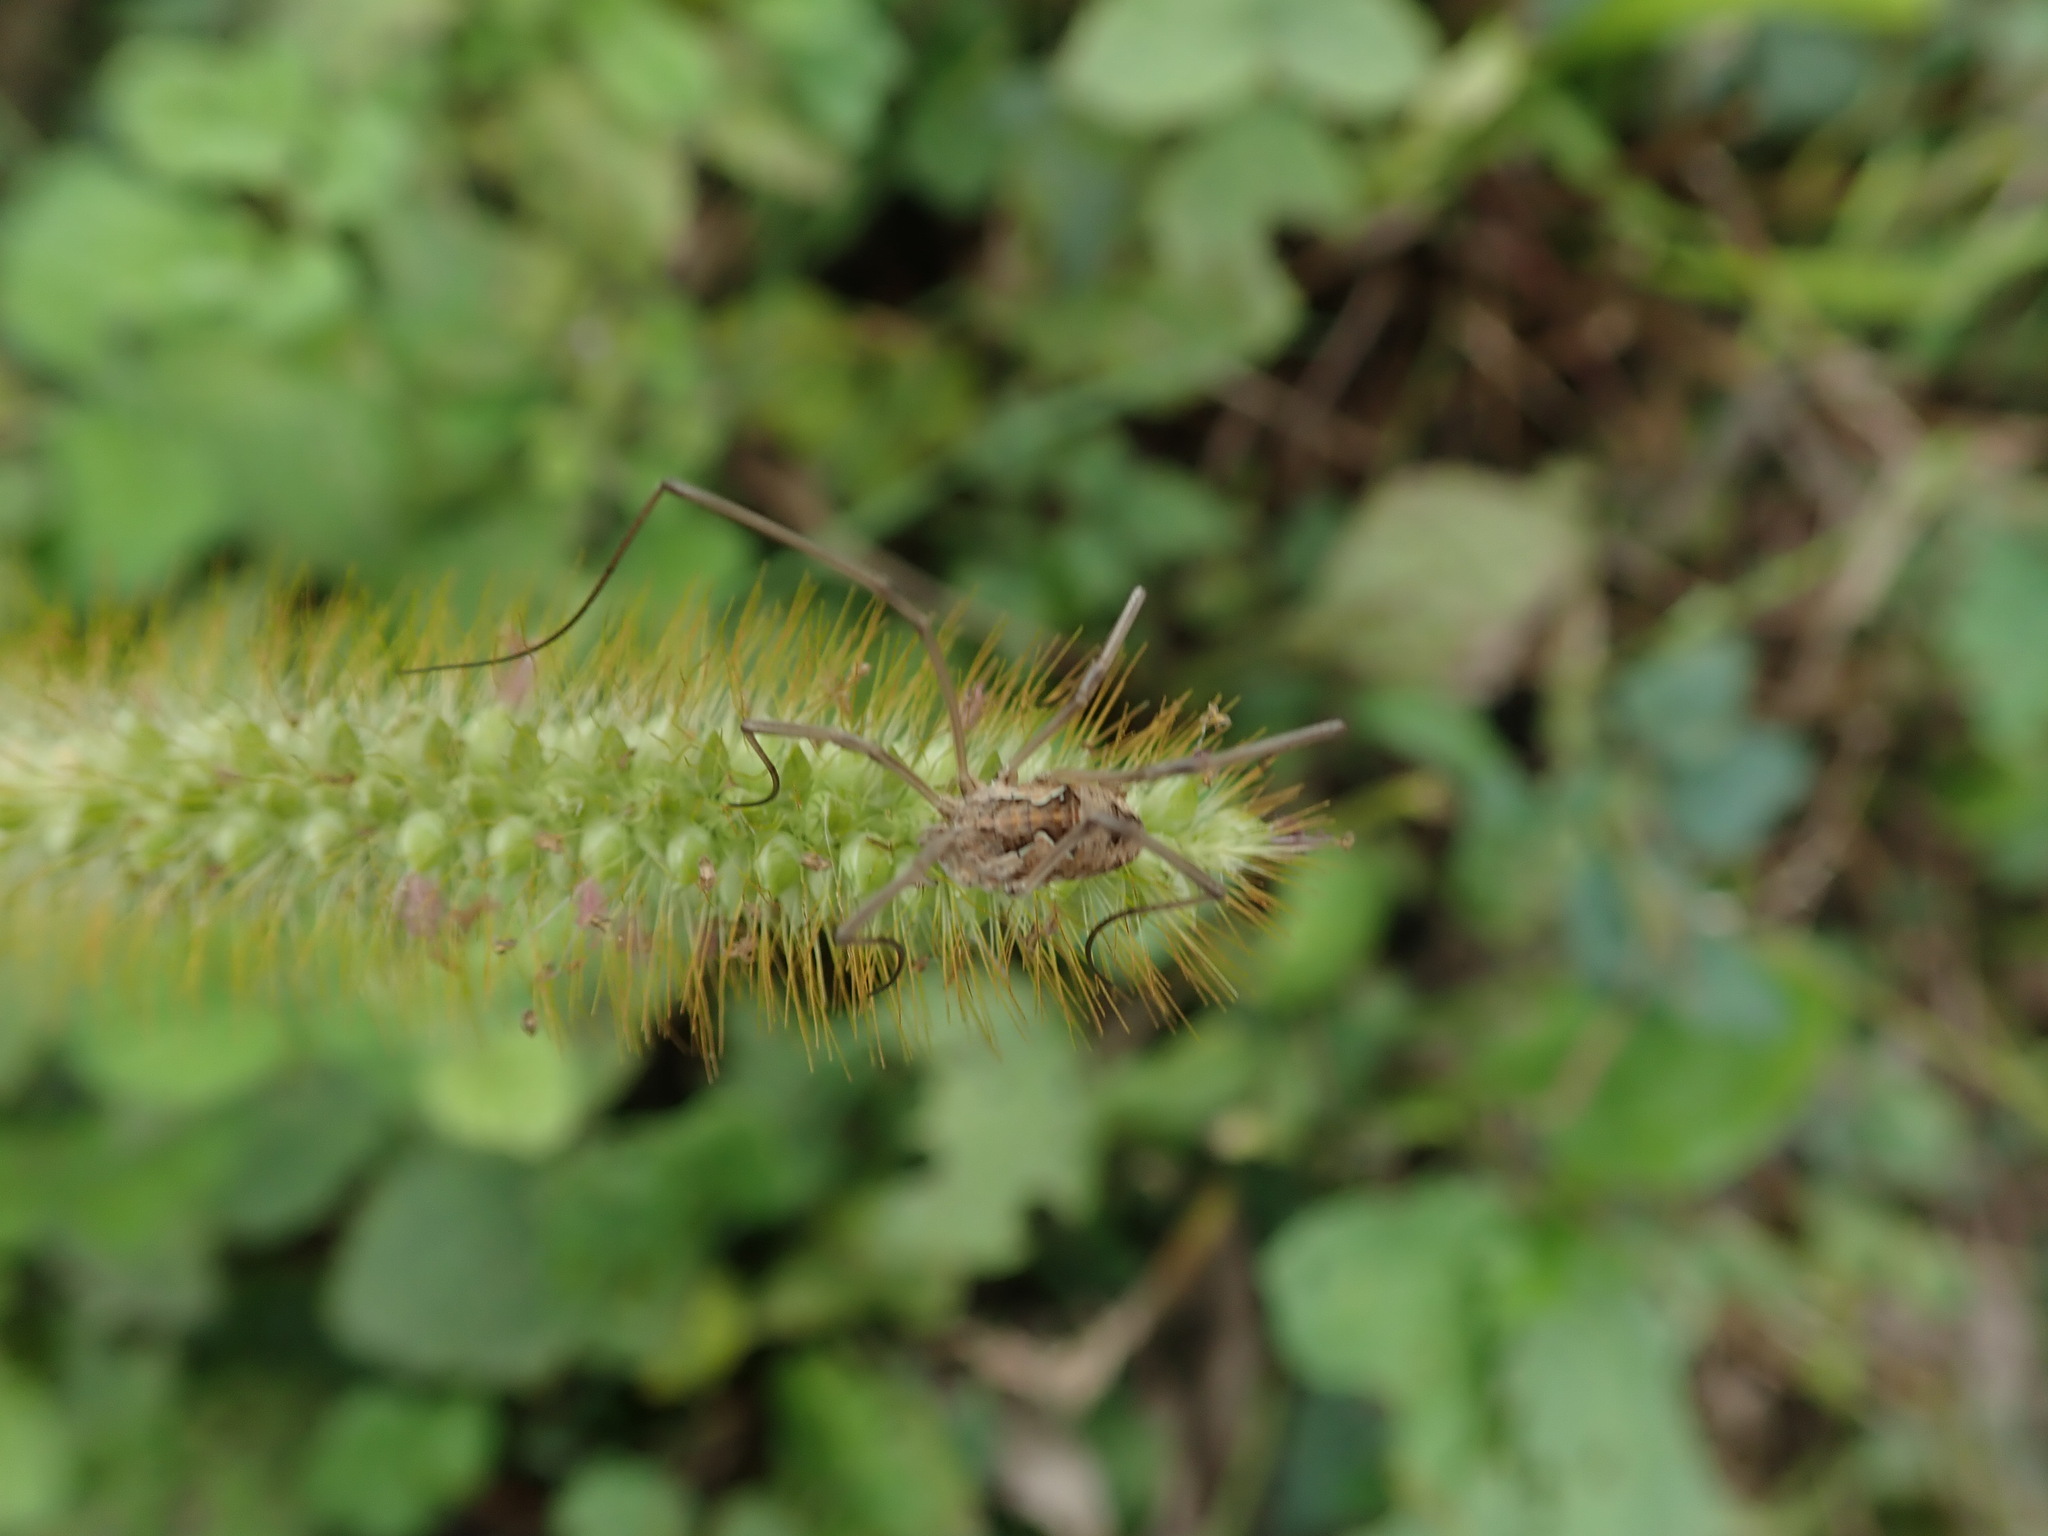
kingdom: Animalia
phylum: Arthropoda
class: Arachnida
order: Opiliones
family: Phalangiidae
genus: Metaphalangium
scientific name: Metaphalangium cirtanum
